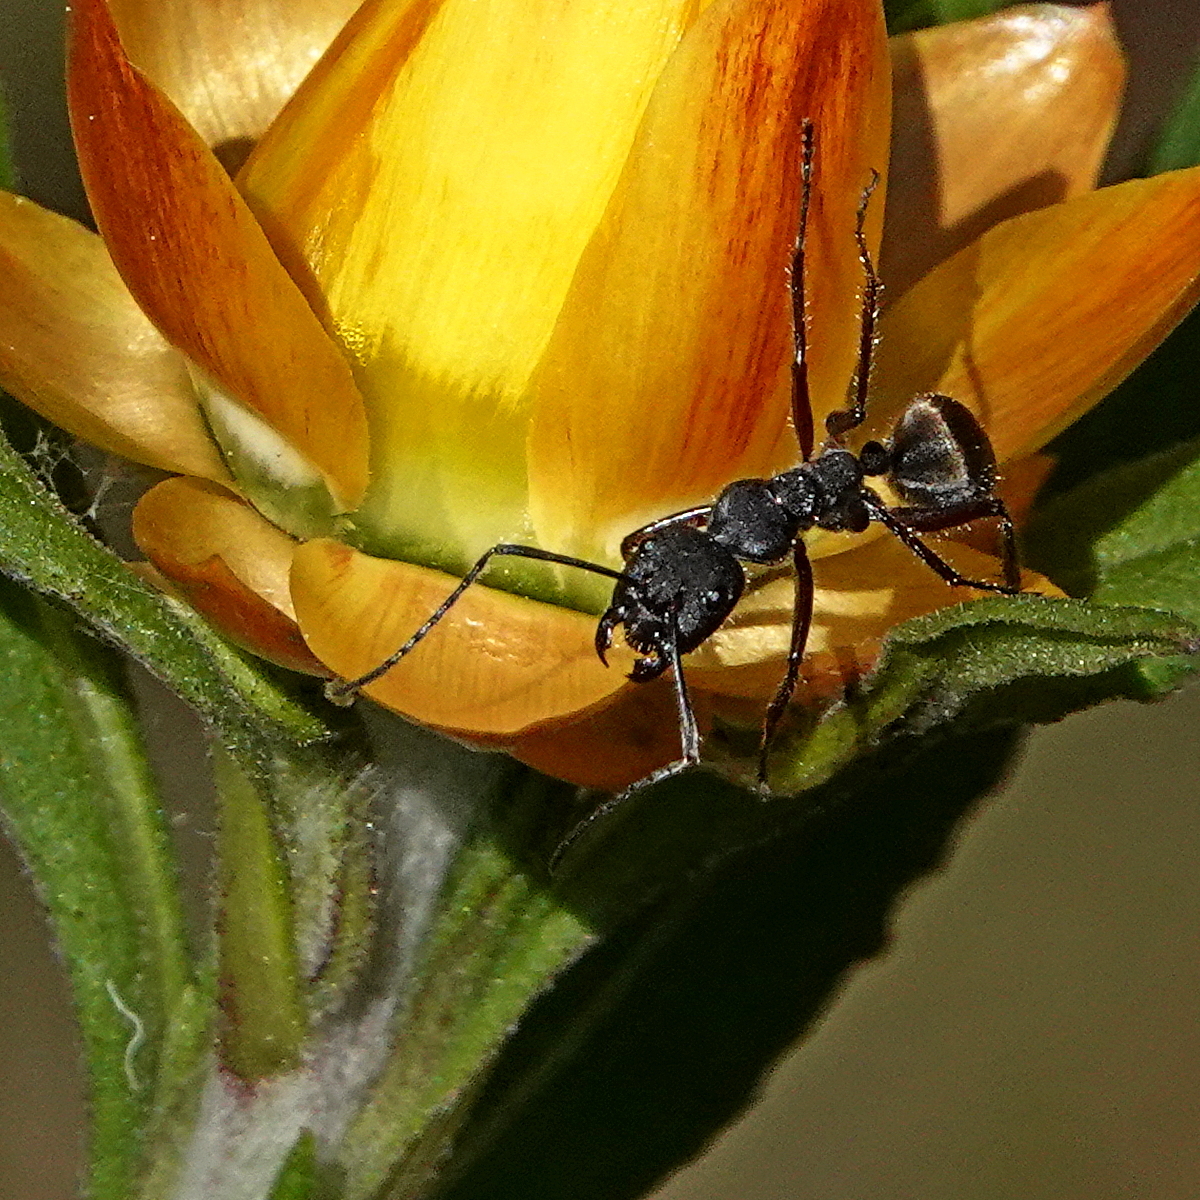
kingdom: Animalia
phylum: Arthropoda
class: Insecta
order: Hymenoptera
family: Formicidae
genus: Camponotus
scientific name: Camponotus suffusus
